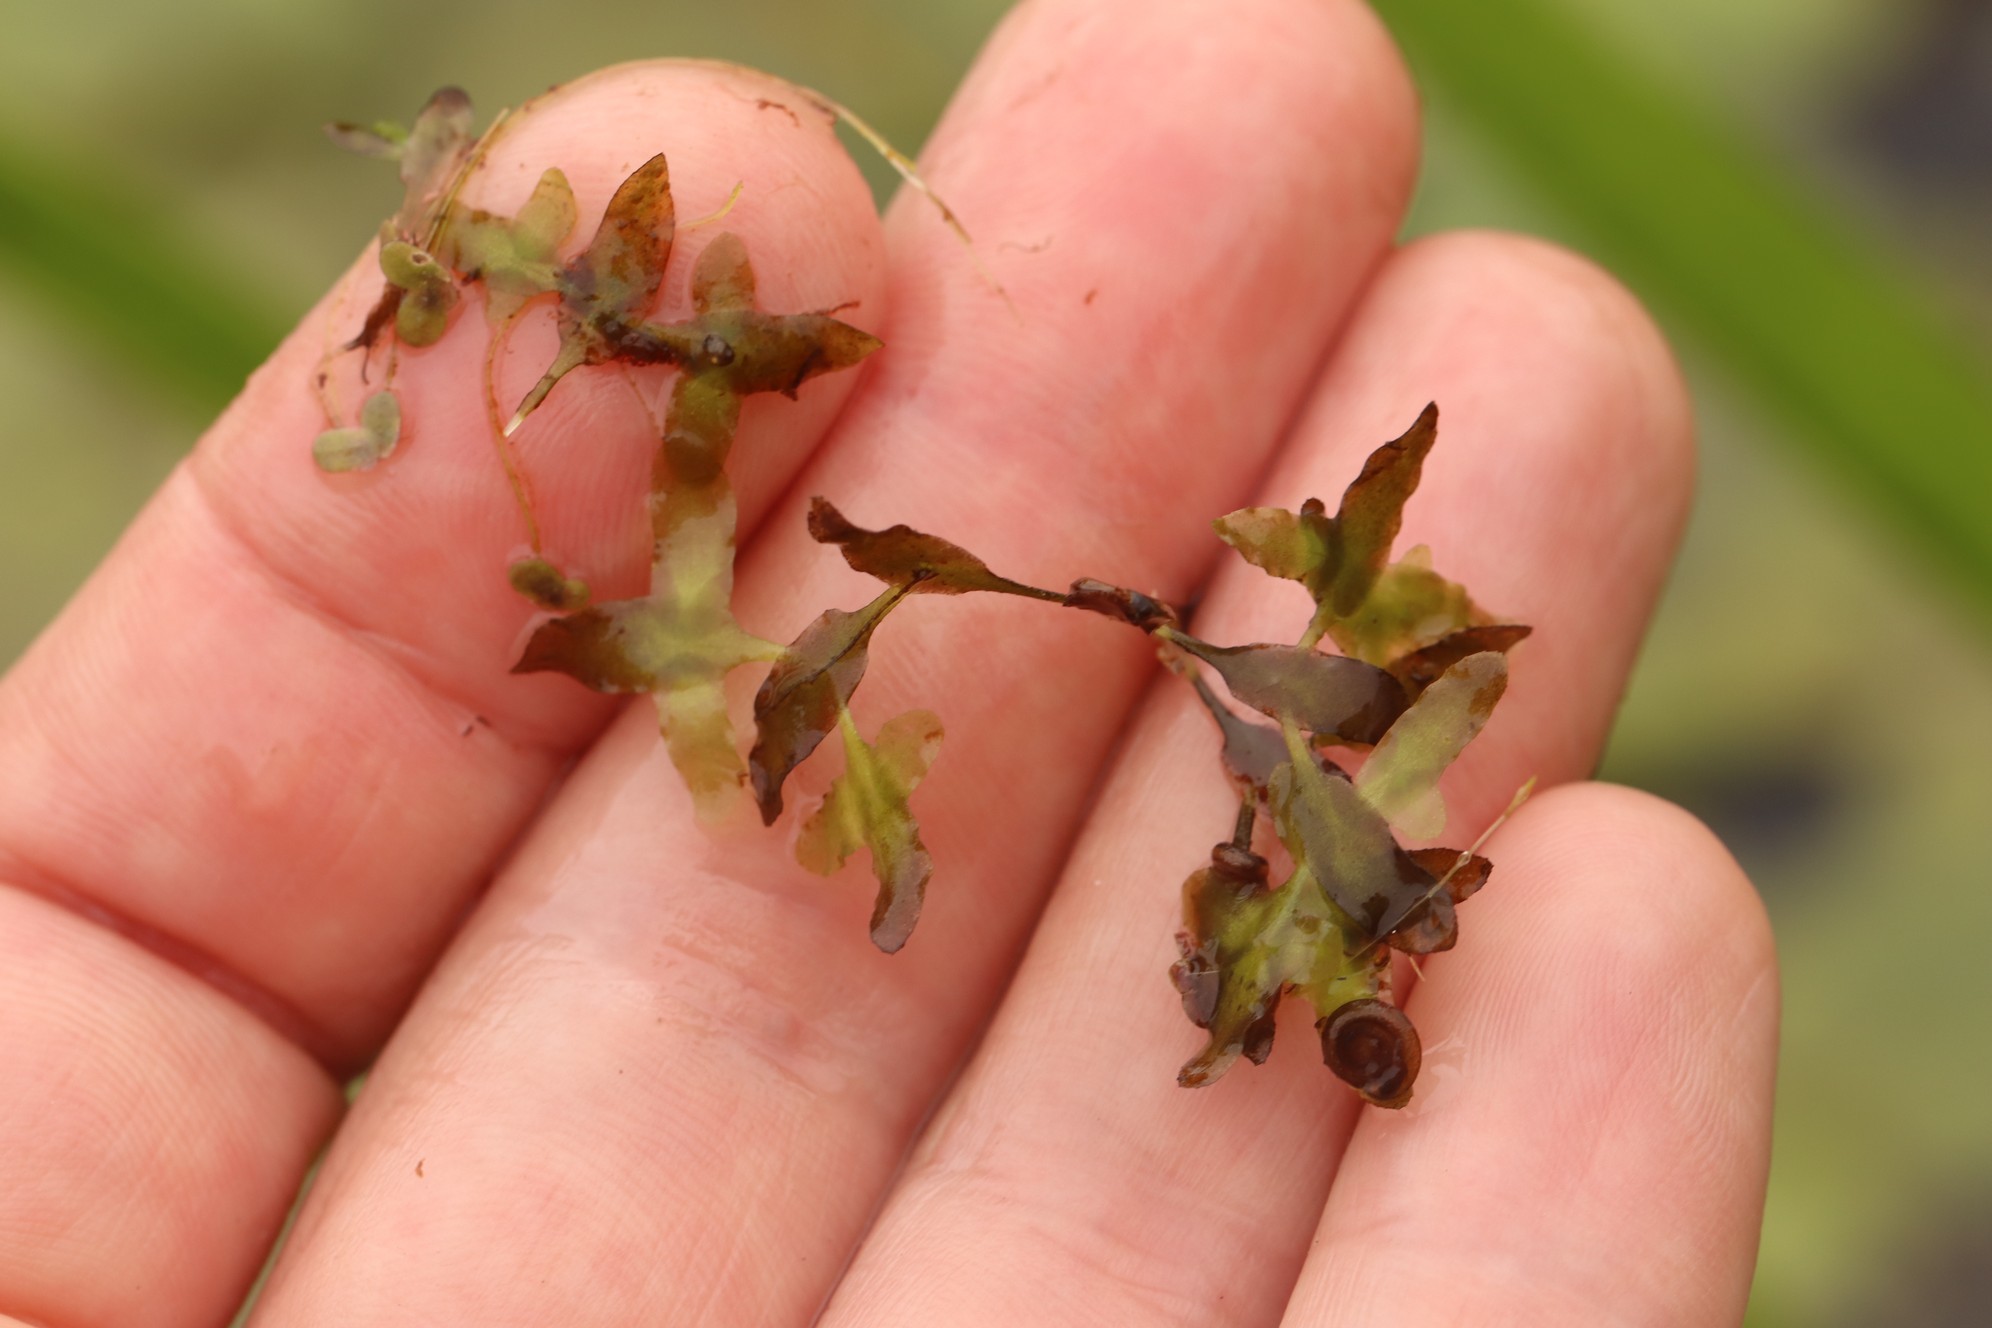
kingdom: Plantae
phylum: Tracheophyta
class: Liliopsida
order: Alismatales
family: Araceae
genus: Lemna
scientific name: Lemna trisulca
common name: Ivy-leaved duckweed
